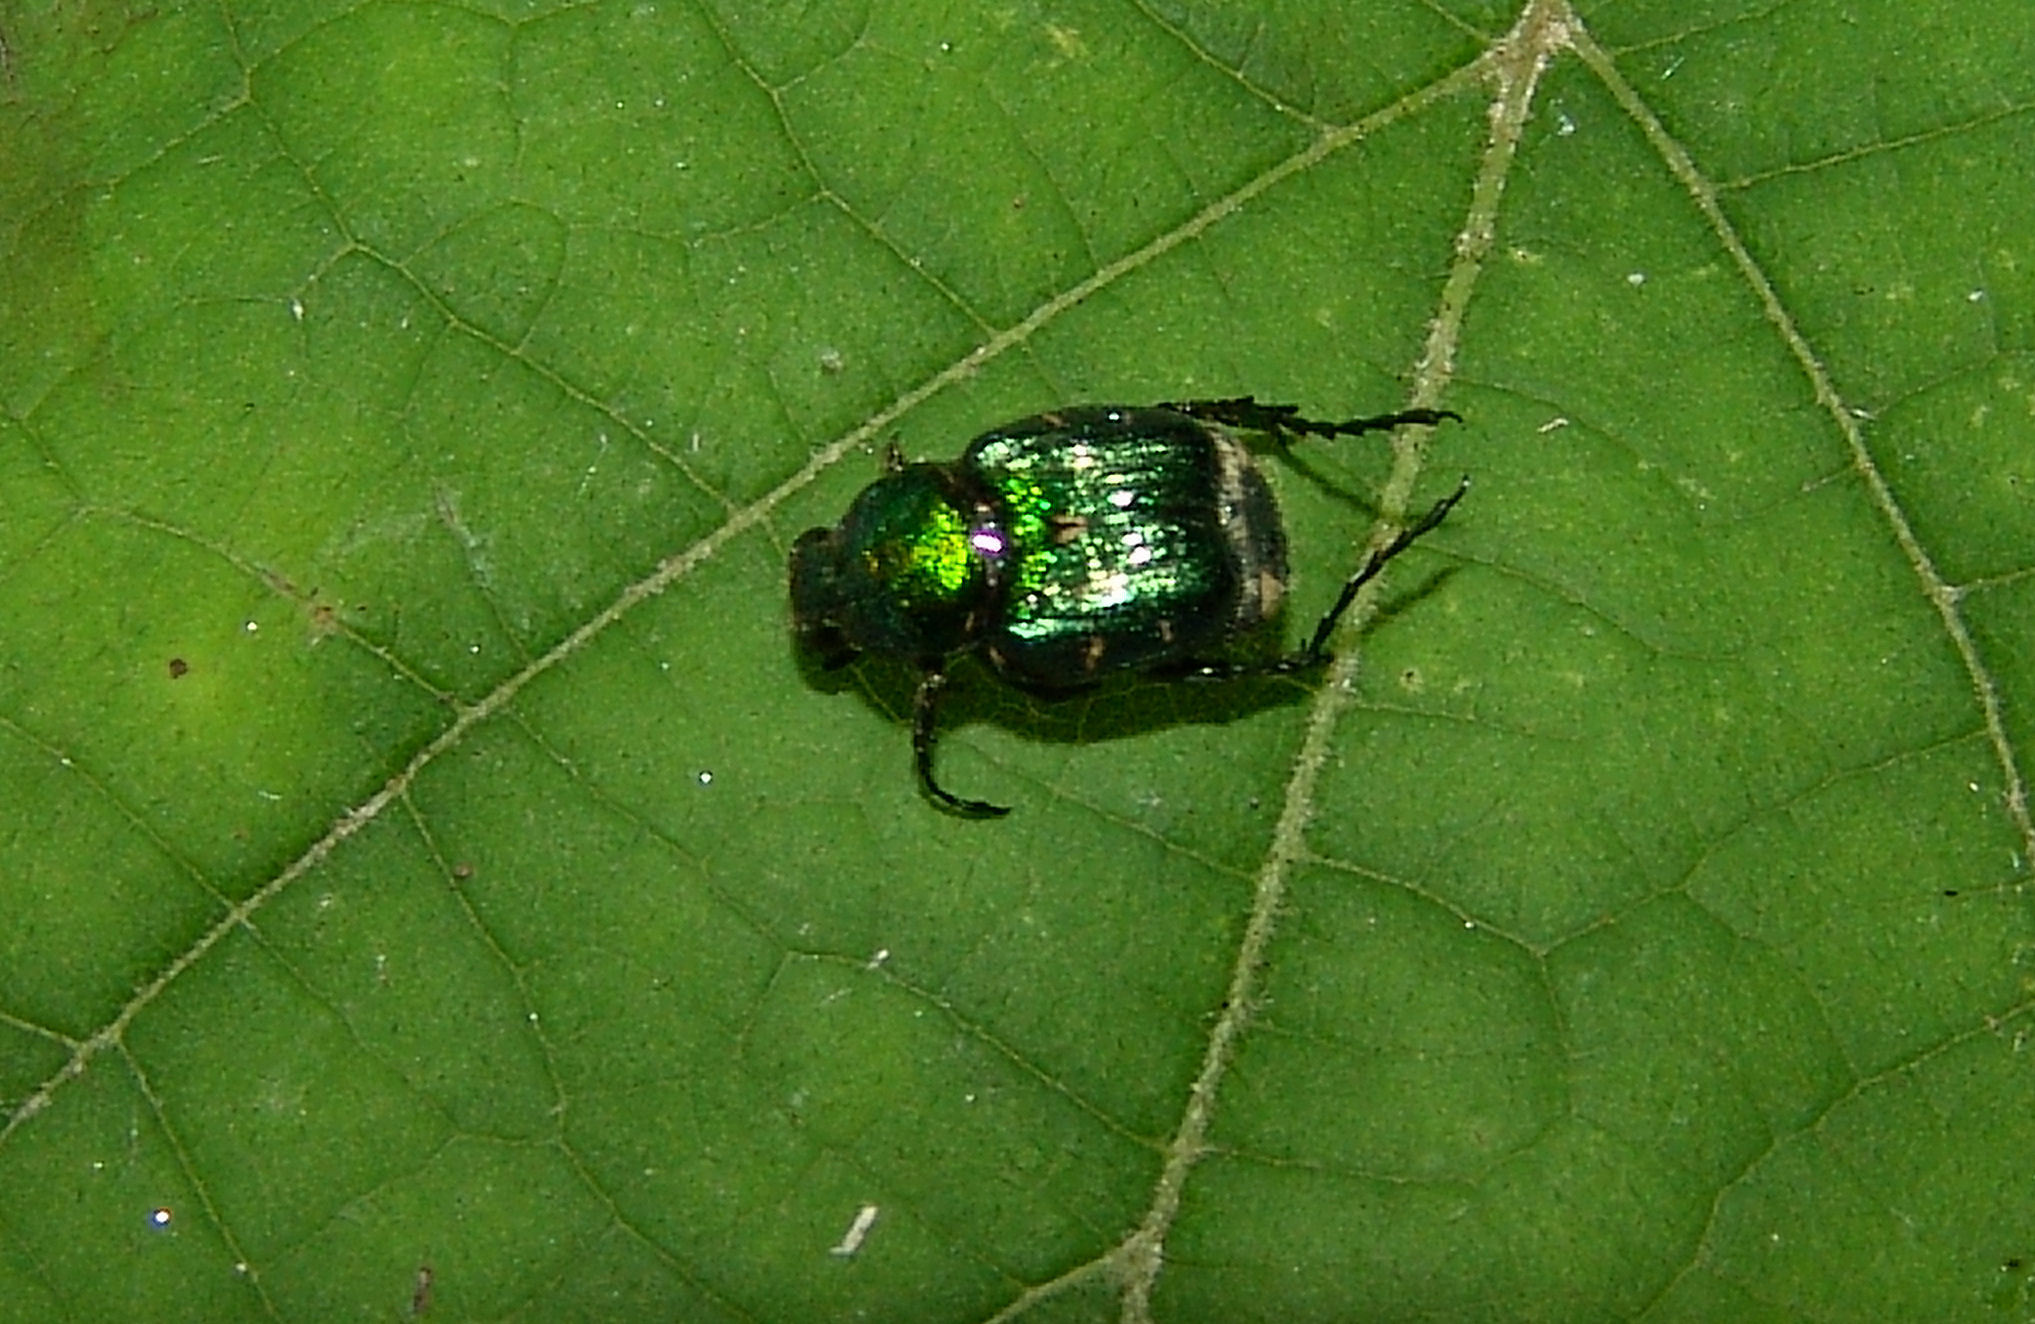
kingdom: Animalia
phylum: Arthropoda
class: Insecta
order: Coleoptera
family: Scarabaeidae
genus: Trichiotinus
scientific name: Trichiotinus lunulatus
